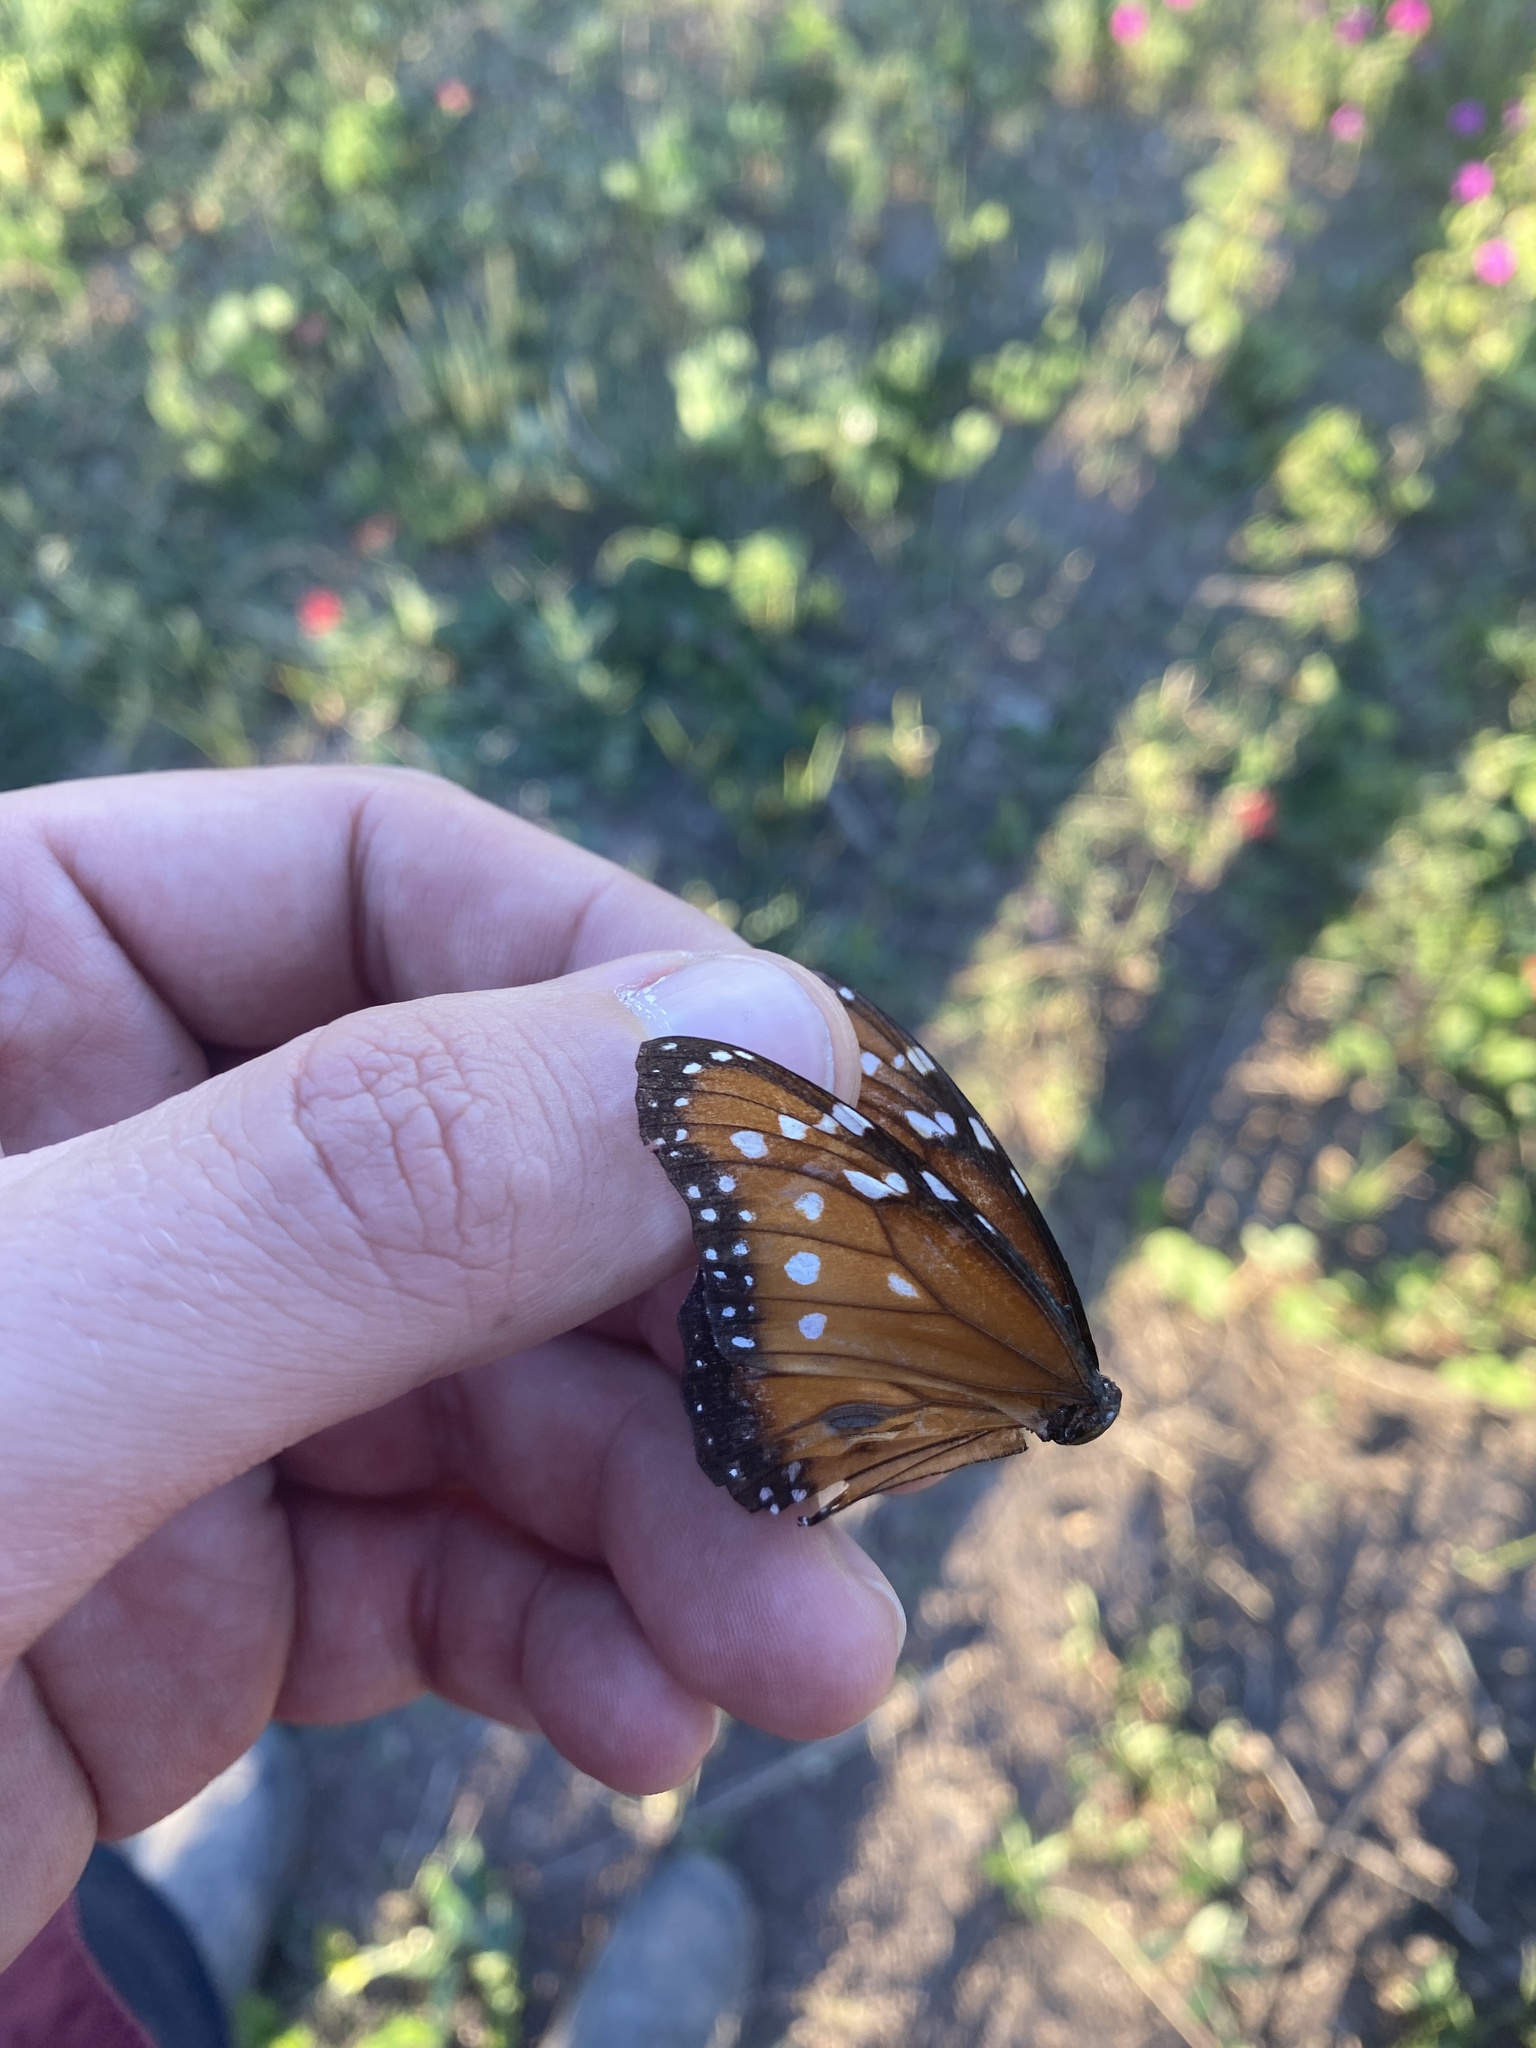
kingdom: Animalia
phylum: Arthropoda
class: Insecta
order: Lepidoptera
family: Nymphalidae
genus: Danaus
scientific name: Danaus eresimus
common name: Soldier
